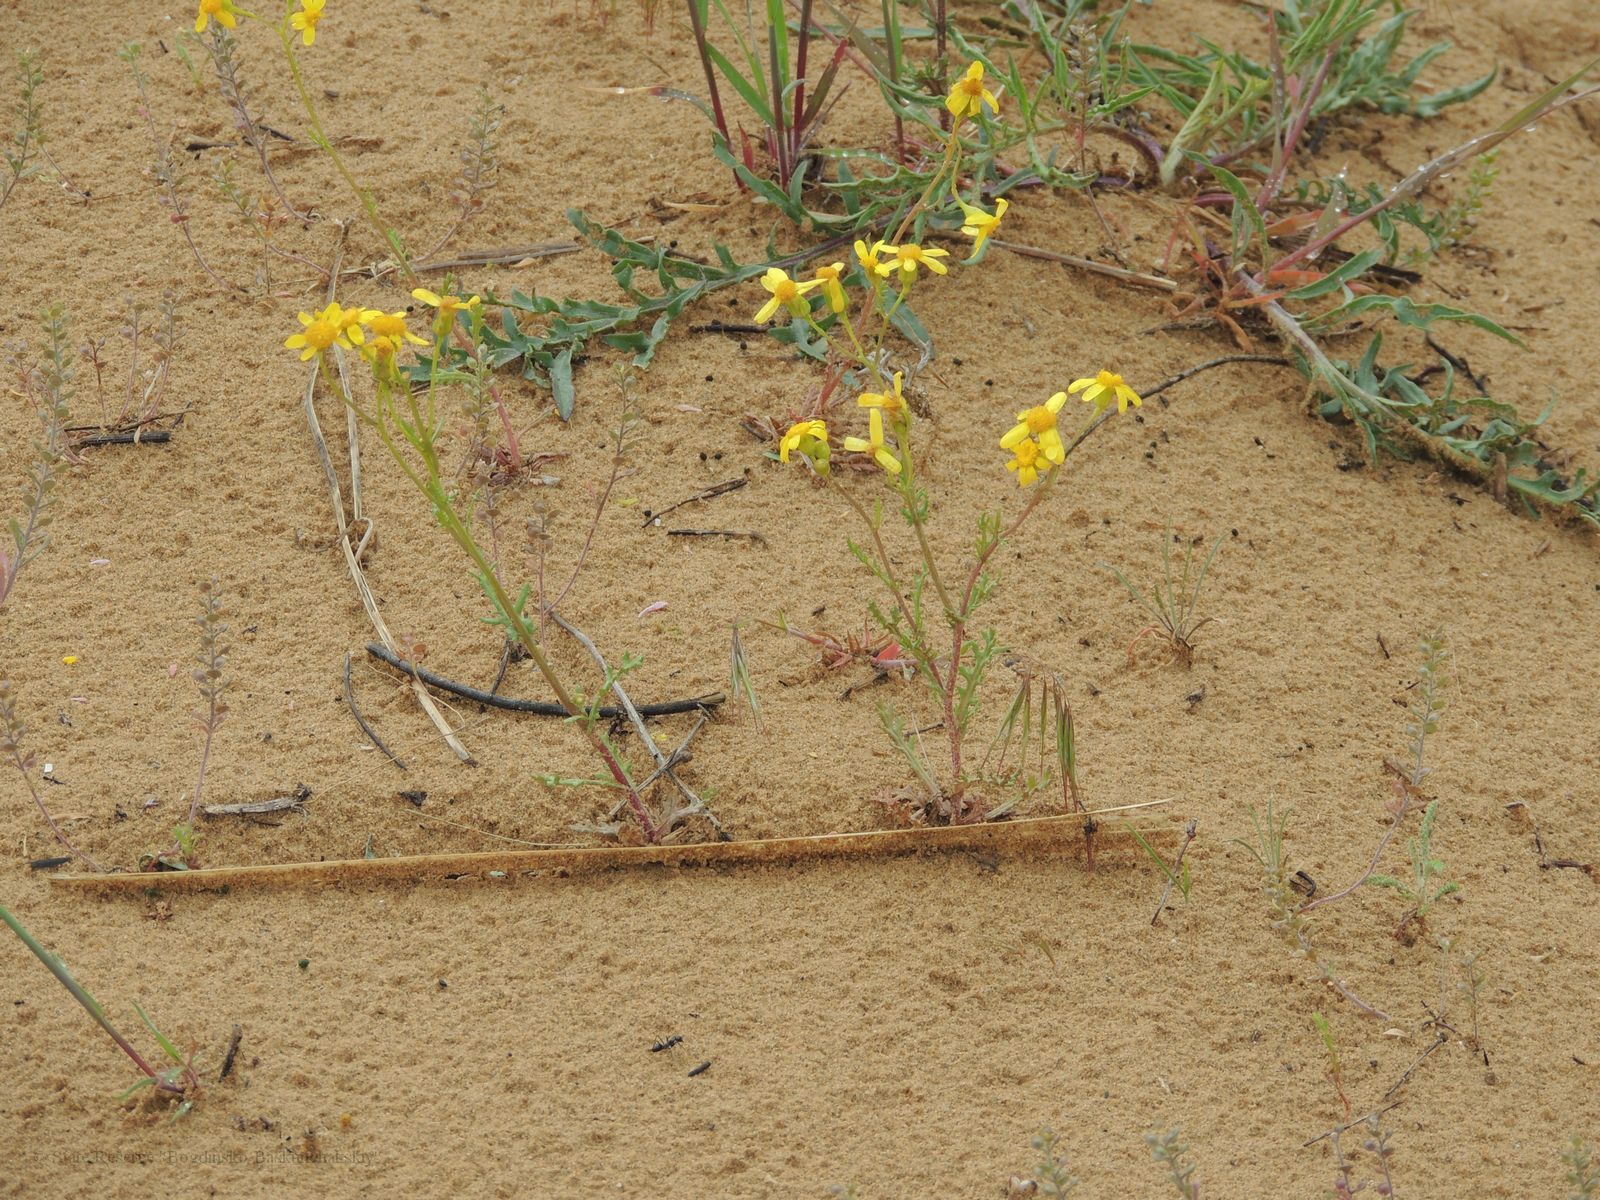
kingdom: Plantae
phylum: Tracheophyta
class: Magnoliopsida
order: Asterales
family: Asteraceae
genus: Senecio
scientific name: Senecio vernalis
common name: Eastern groundsel
